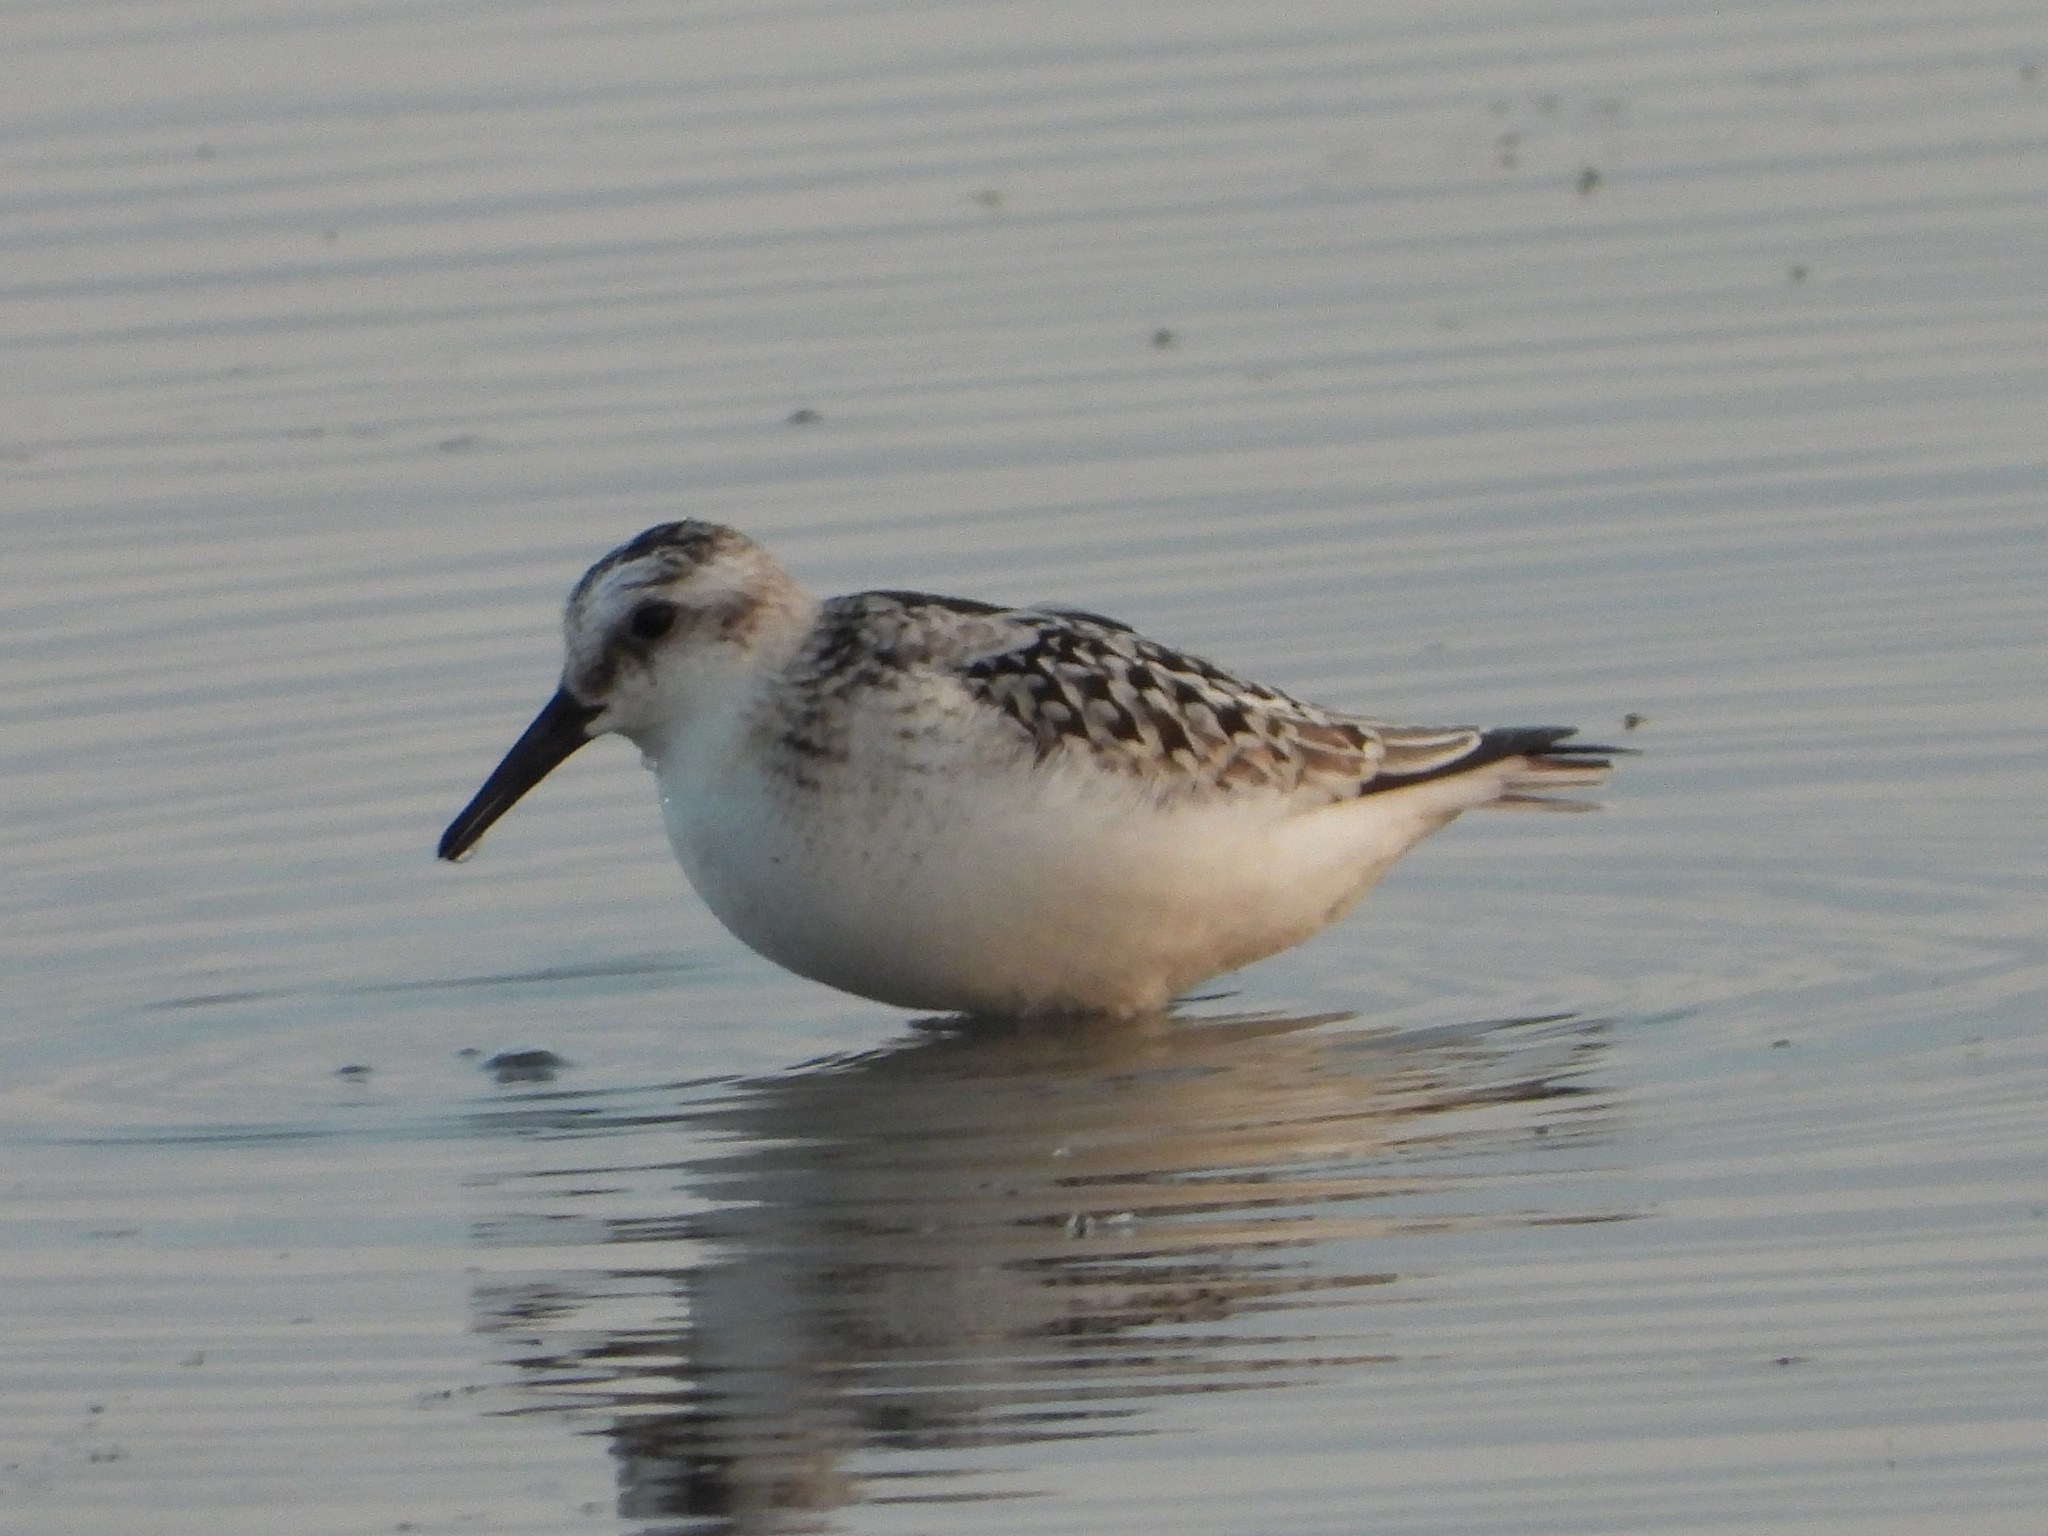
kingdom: Animalia
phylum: Chordata
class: Aves
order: Charadriiformes
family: Scolopacidae
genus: Calidris
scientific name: Calidris alba
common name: Sanderling
